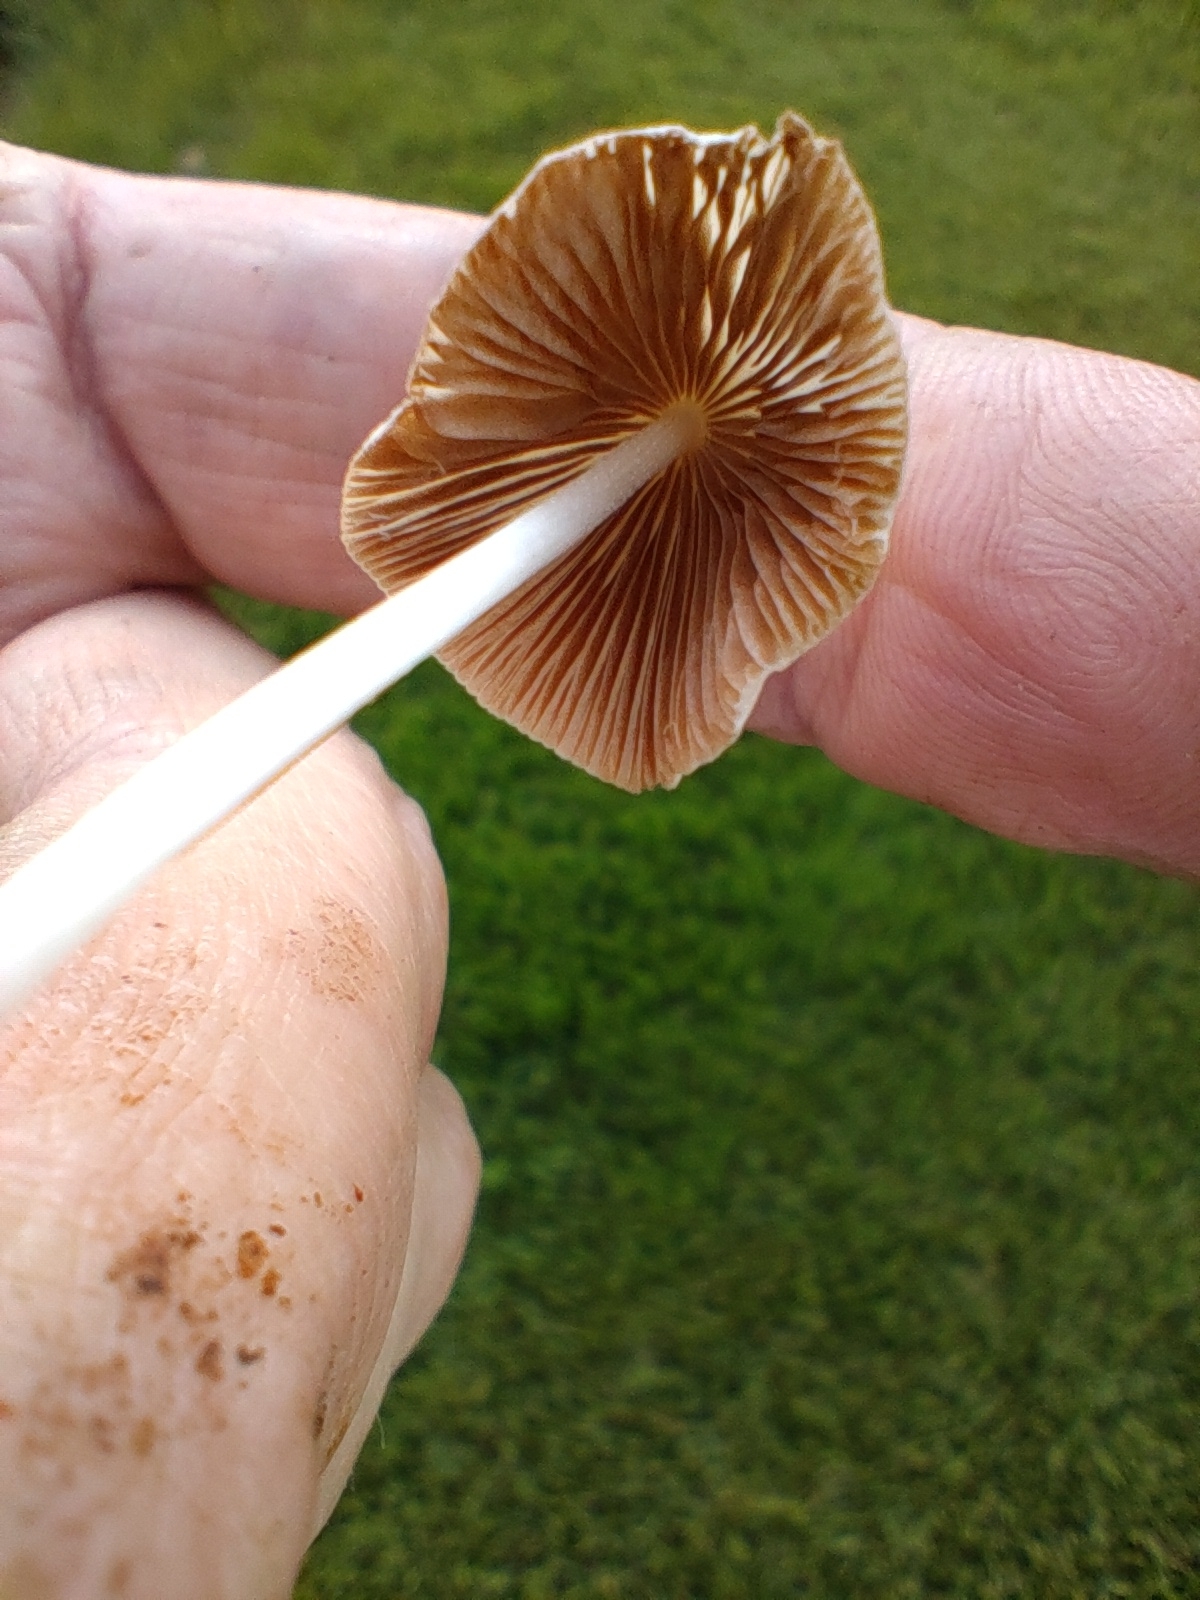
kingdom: Fungi
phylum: Basidiomycota
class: Agaricomycetes
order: Agaricales
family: Bolbitiaceae
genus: Conocybe
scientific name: Conocybe apala
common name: Milky conecap
